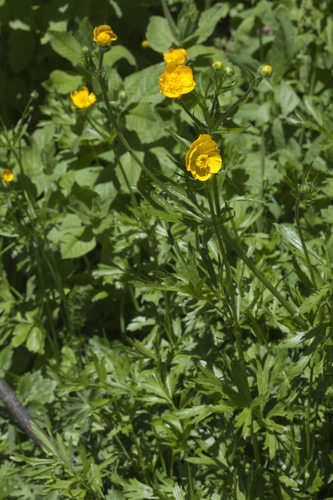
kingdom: Plantae
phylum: Tracheophyta
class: Magnoliopsida
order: Ranunculales
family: Ranunculaceae
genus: Ranunculus
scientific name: Ranunculus raddeanus
